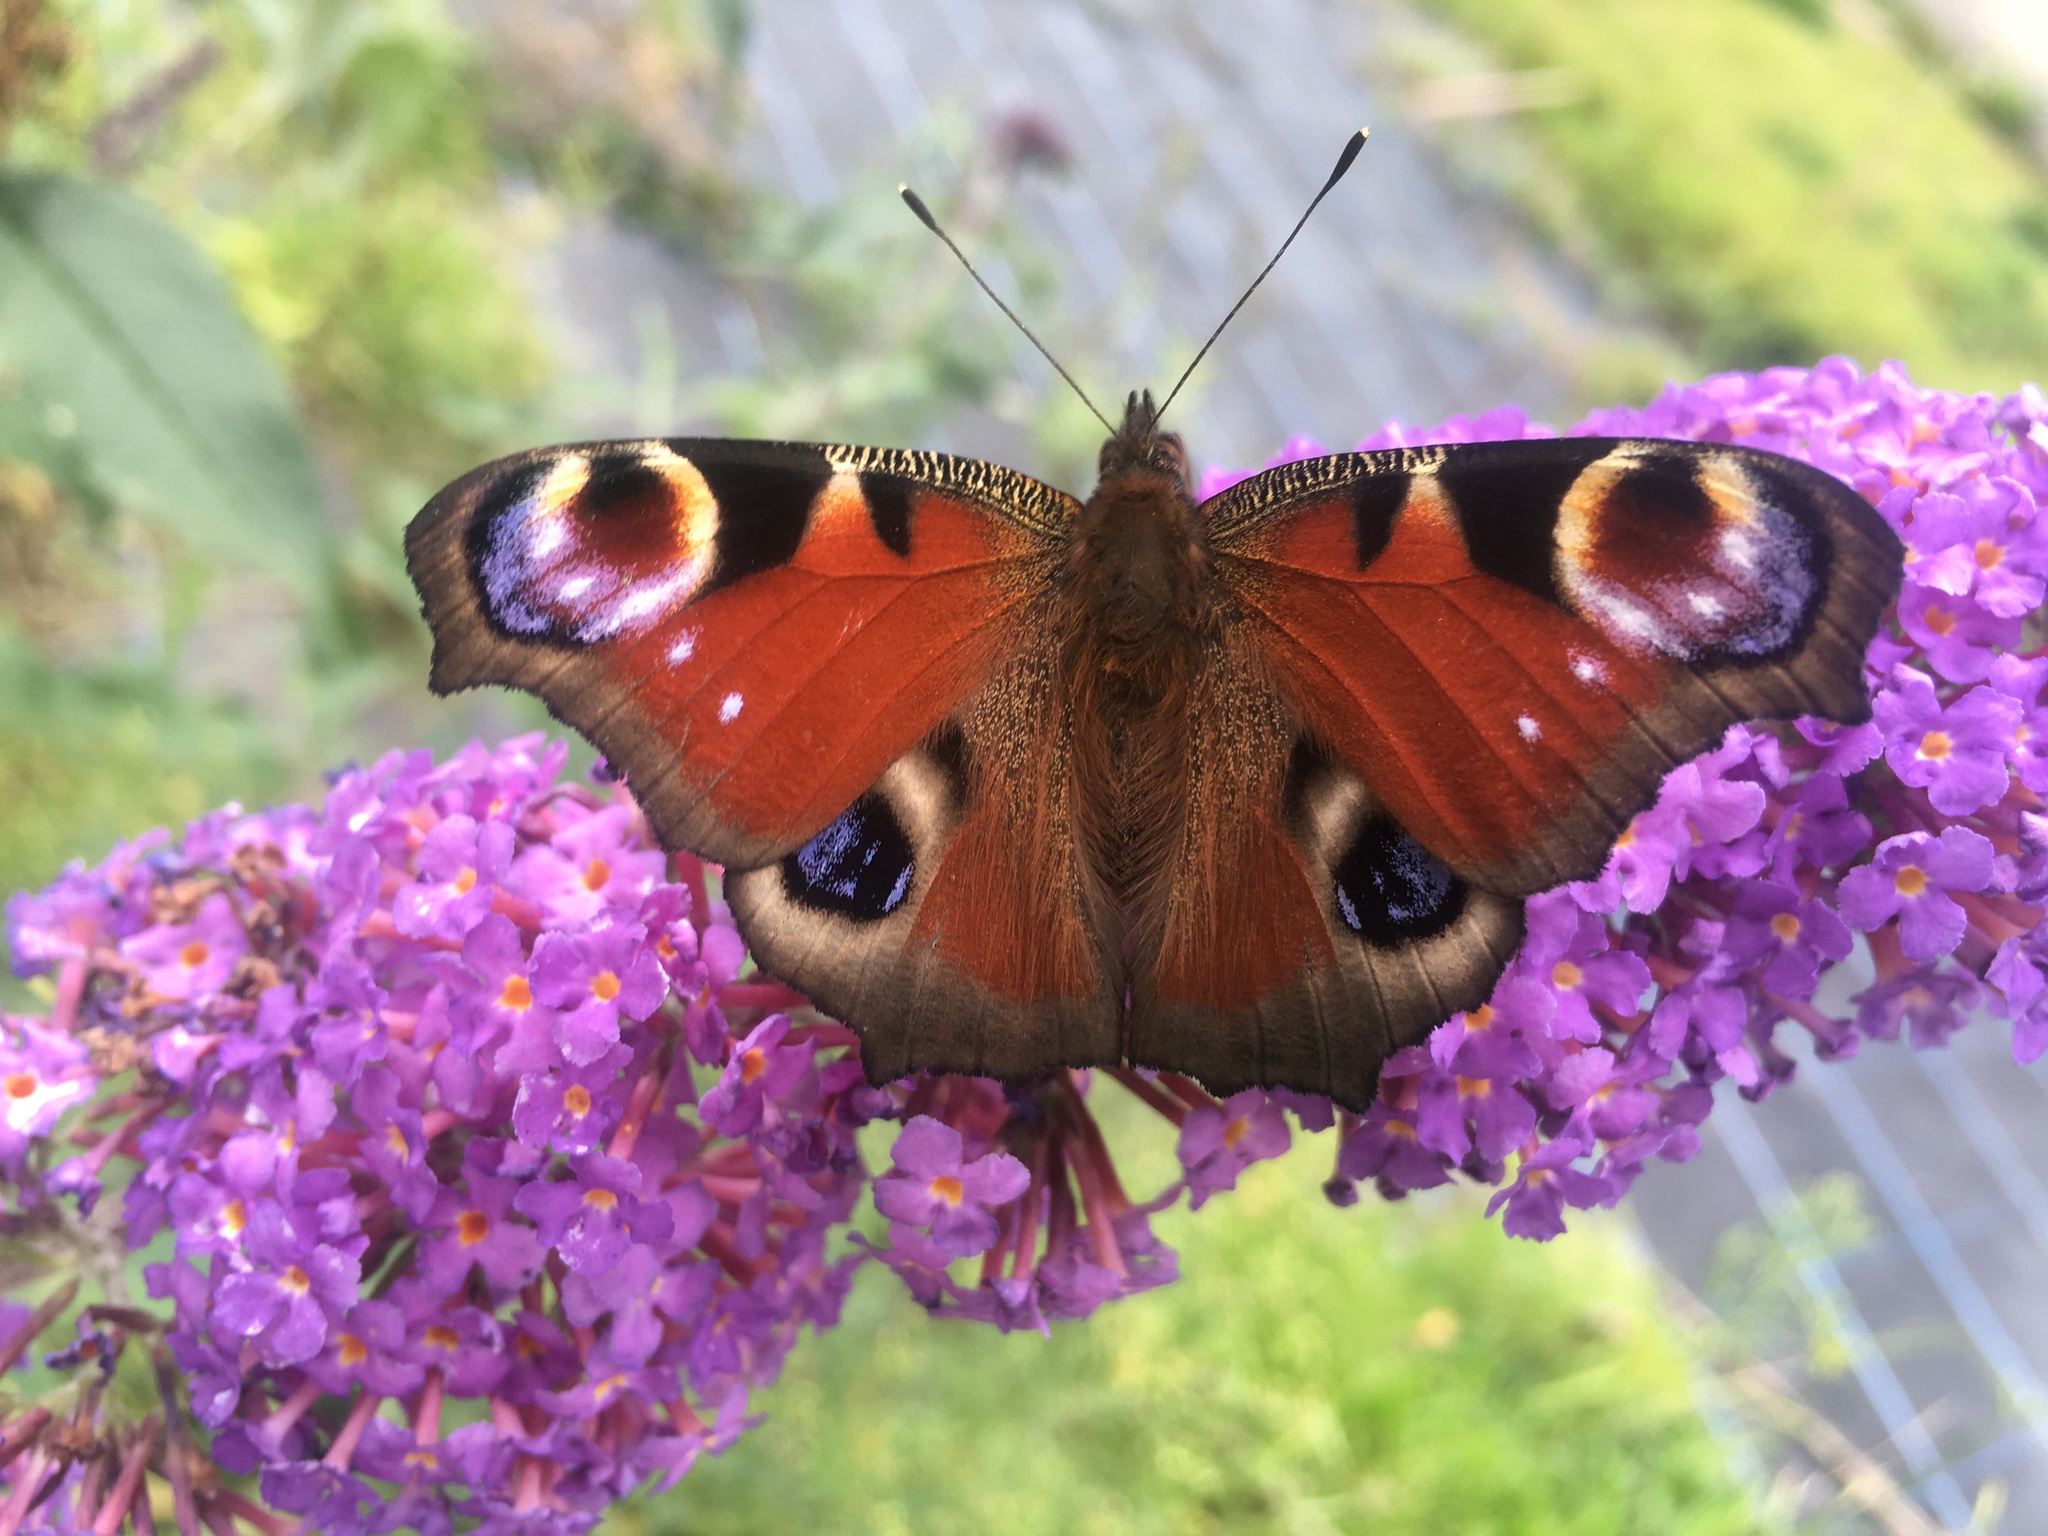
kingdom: Animalia
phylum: Arthropoda
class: Insecta
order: Lepidoptera
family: Nymphalidae
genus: Aglais
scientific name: Aglais io
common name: Peacock
